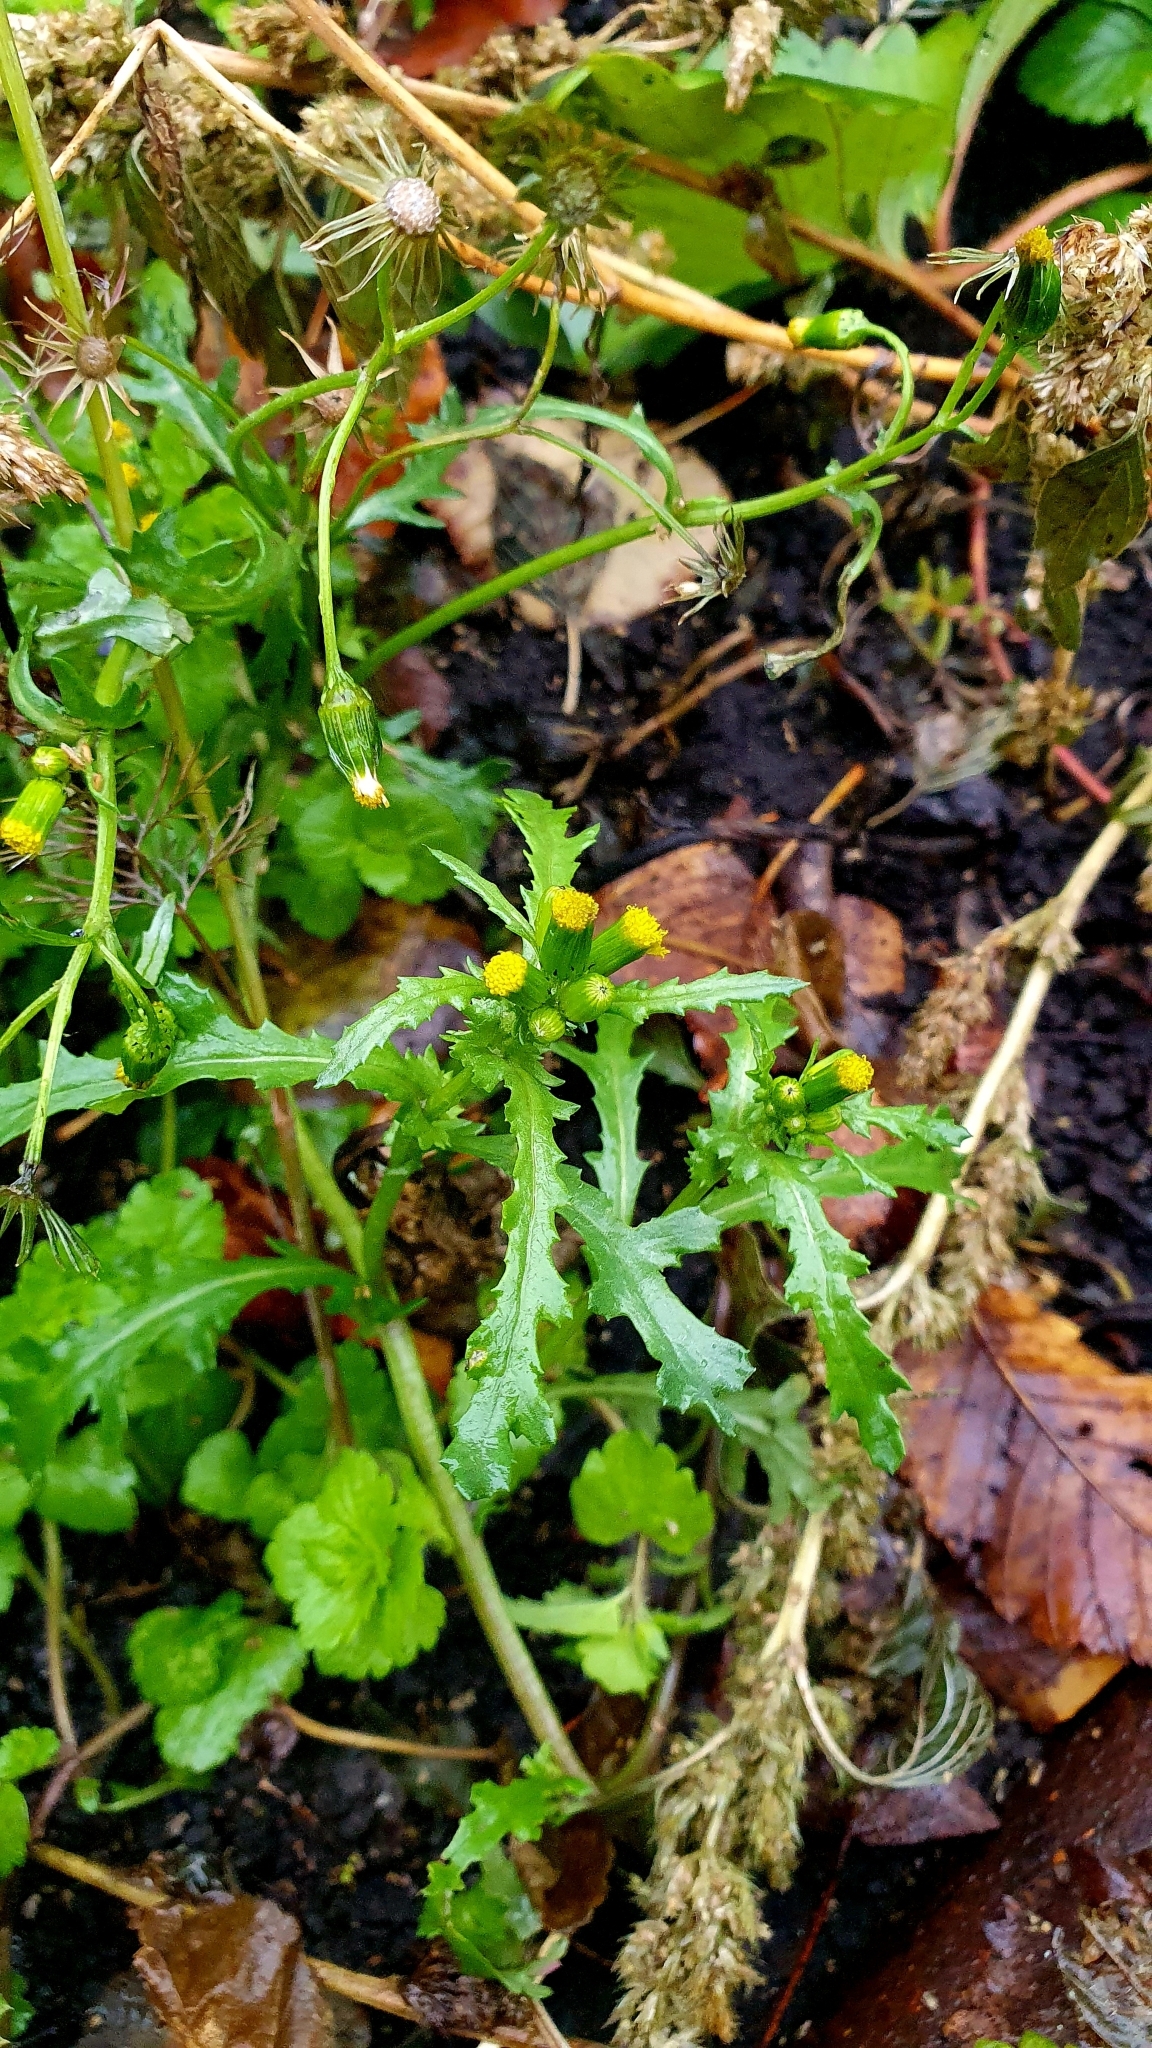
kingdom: Plantae
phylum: Tracheophyta
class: Magnoliopsida
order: Asterales
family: Asteraceae
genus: Senecio
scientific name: Senecio vulgaris
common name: Old-man-in-the-spring
